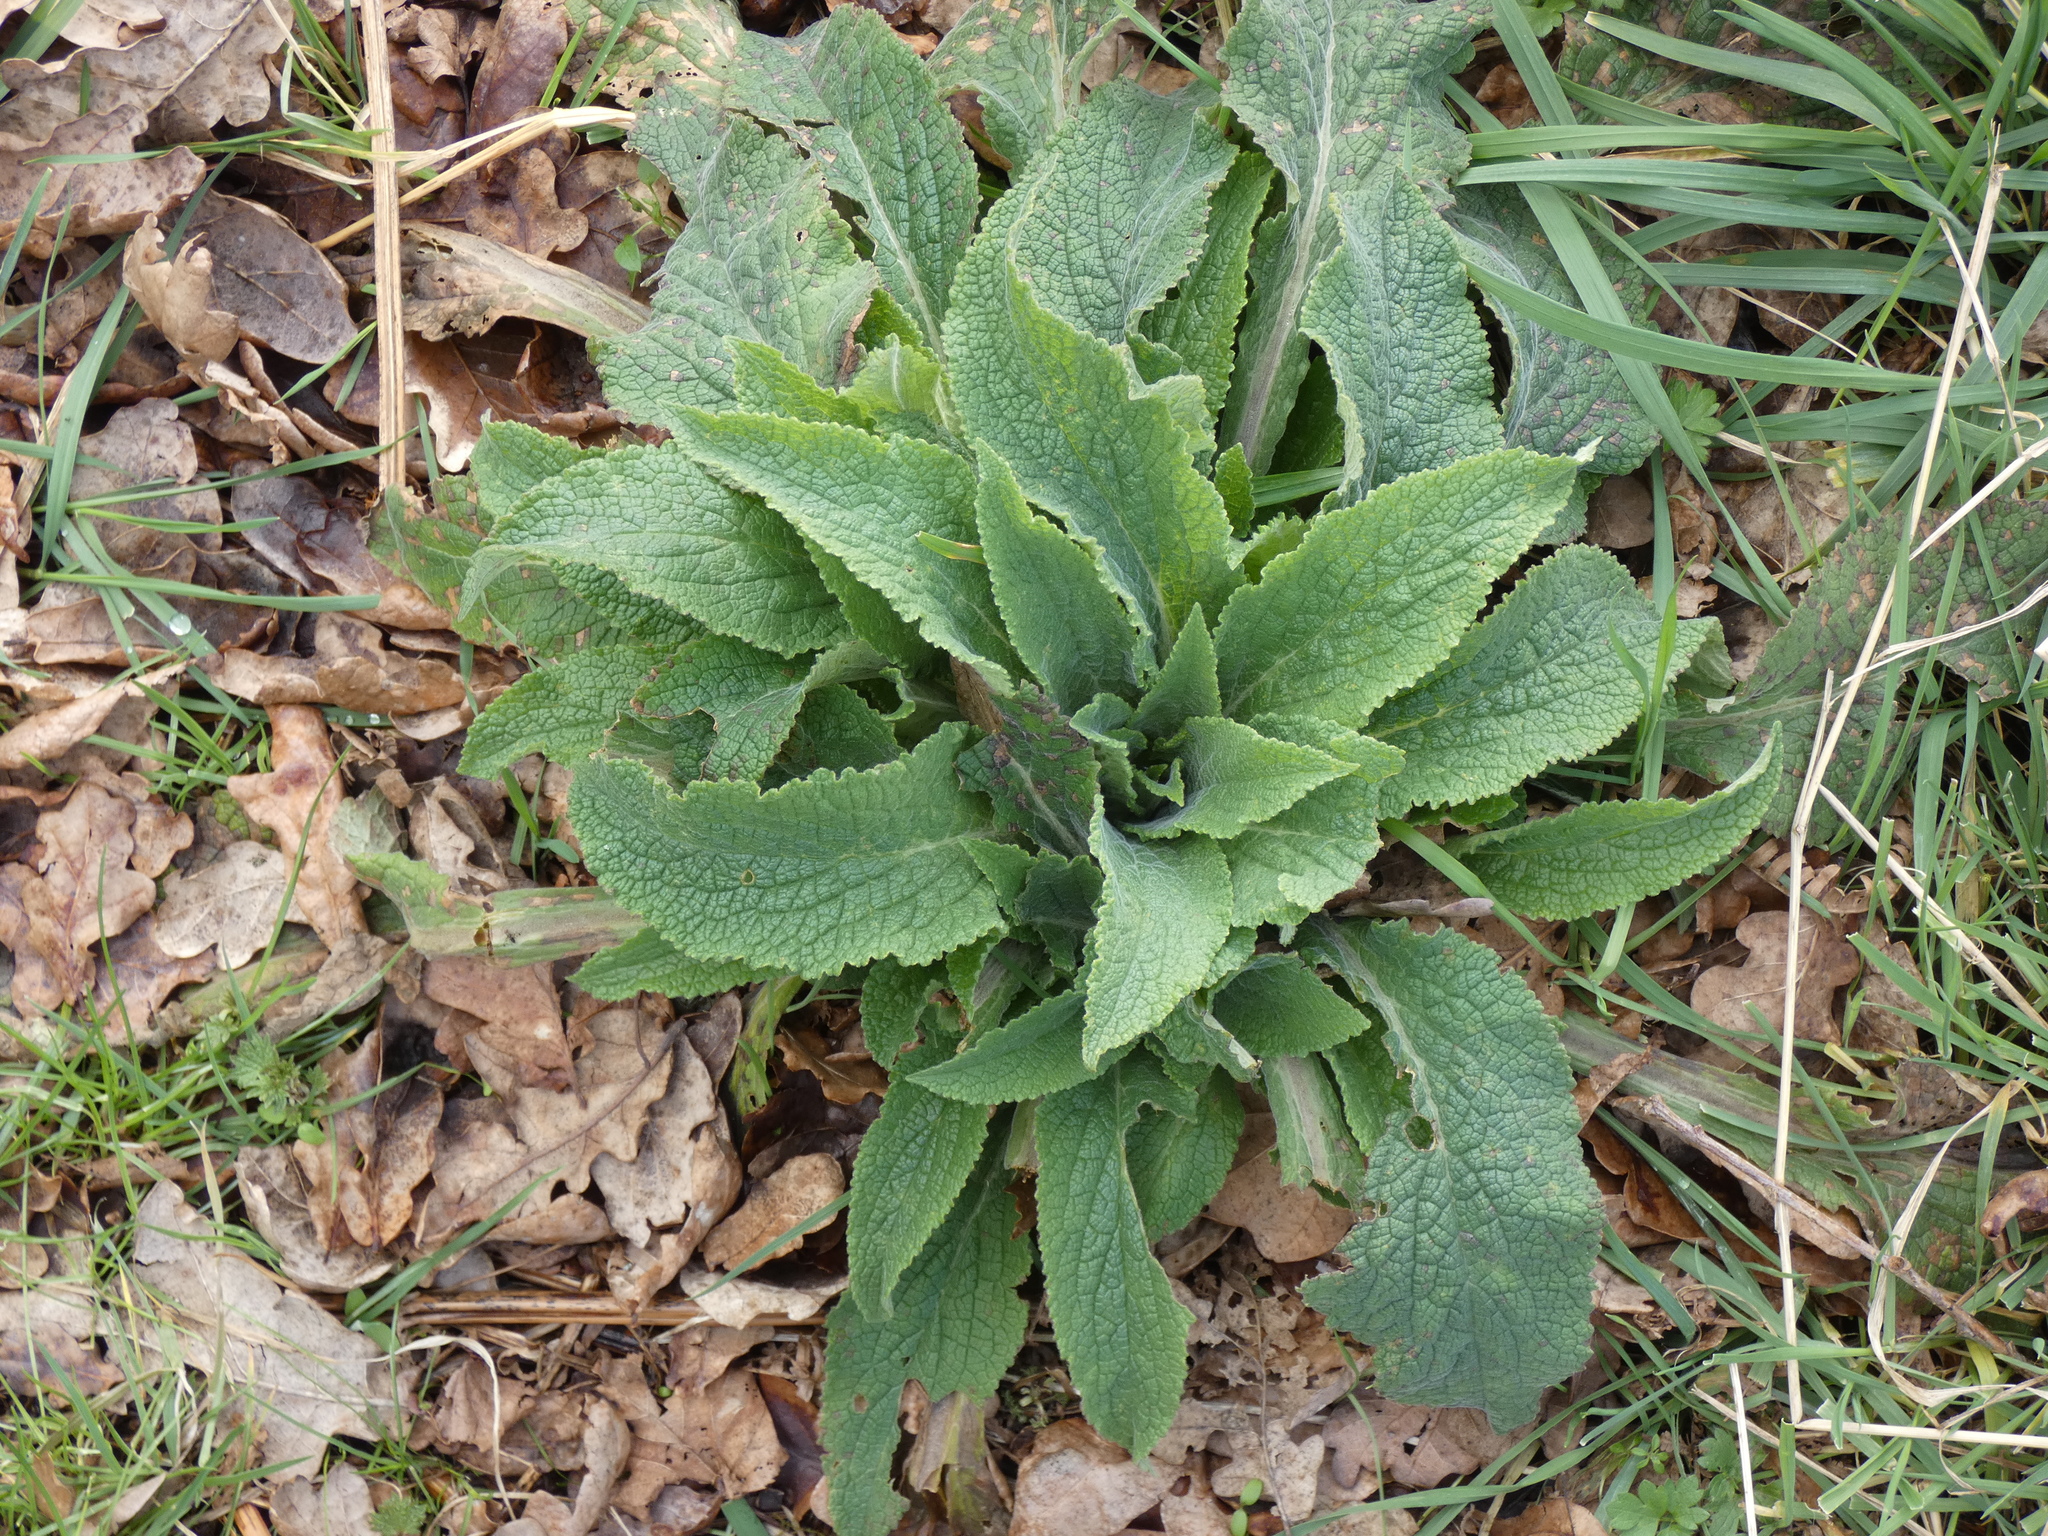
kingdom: Plantae
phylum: Tracheophyta
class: Magnoliopsida
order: Lamiales
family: Plantaginaceae
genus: Digitalis
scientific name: Digitalis purpurea
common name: Foxglove
